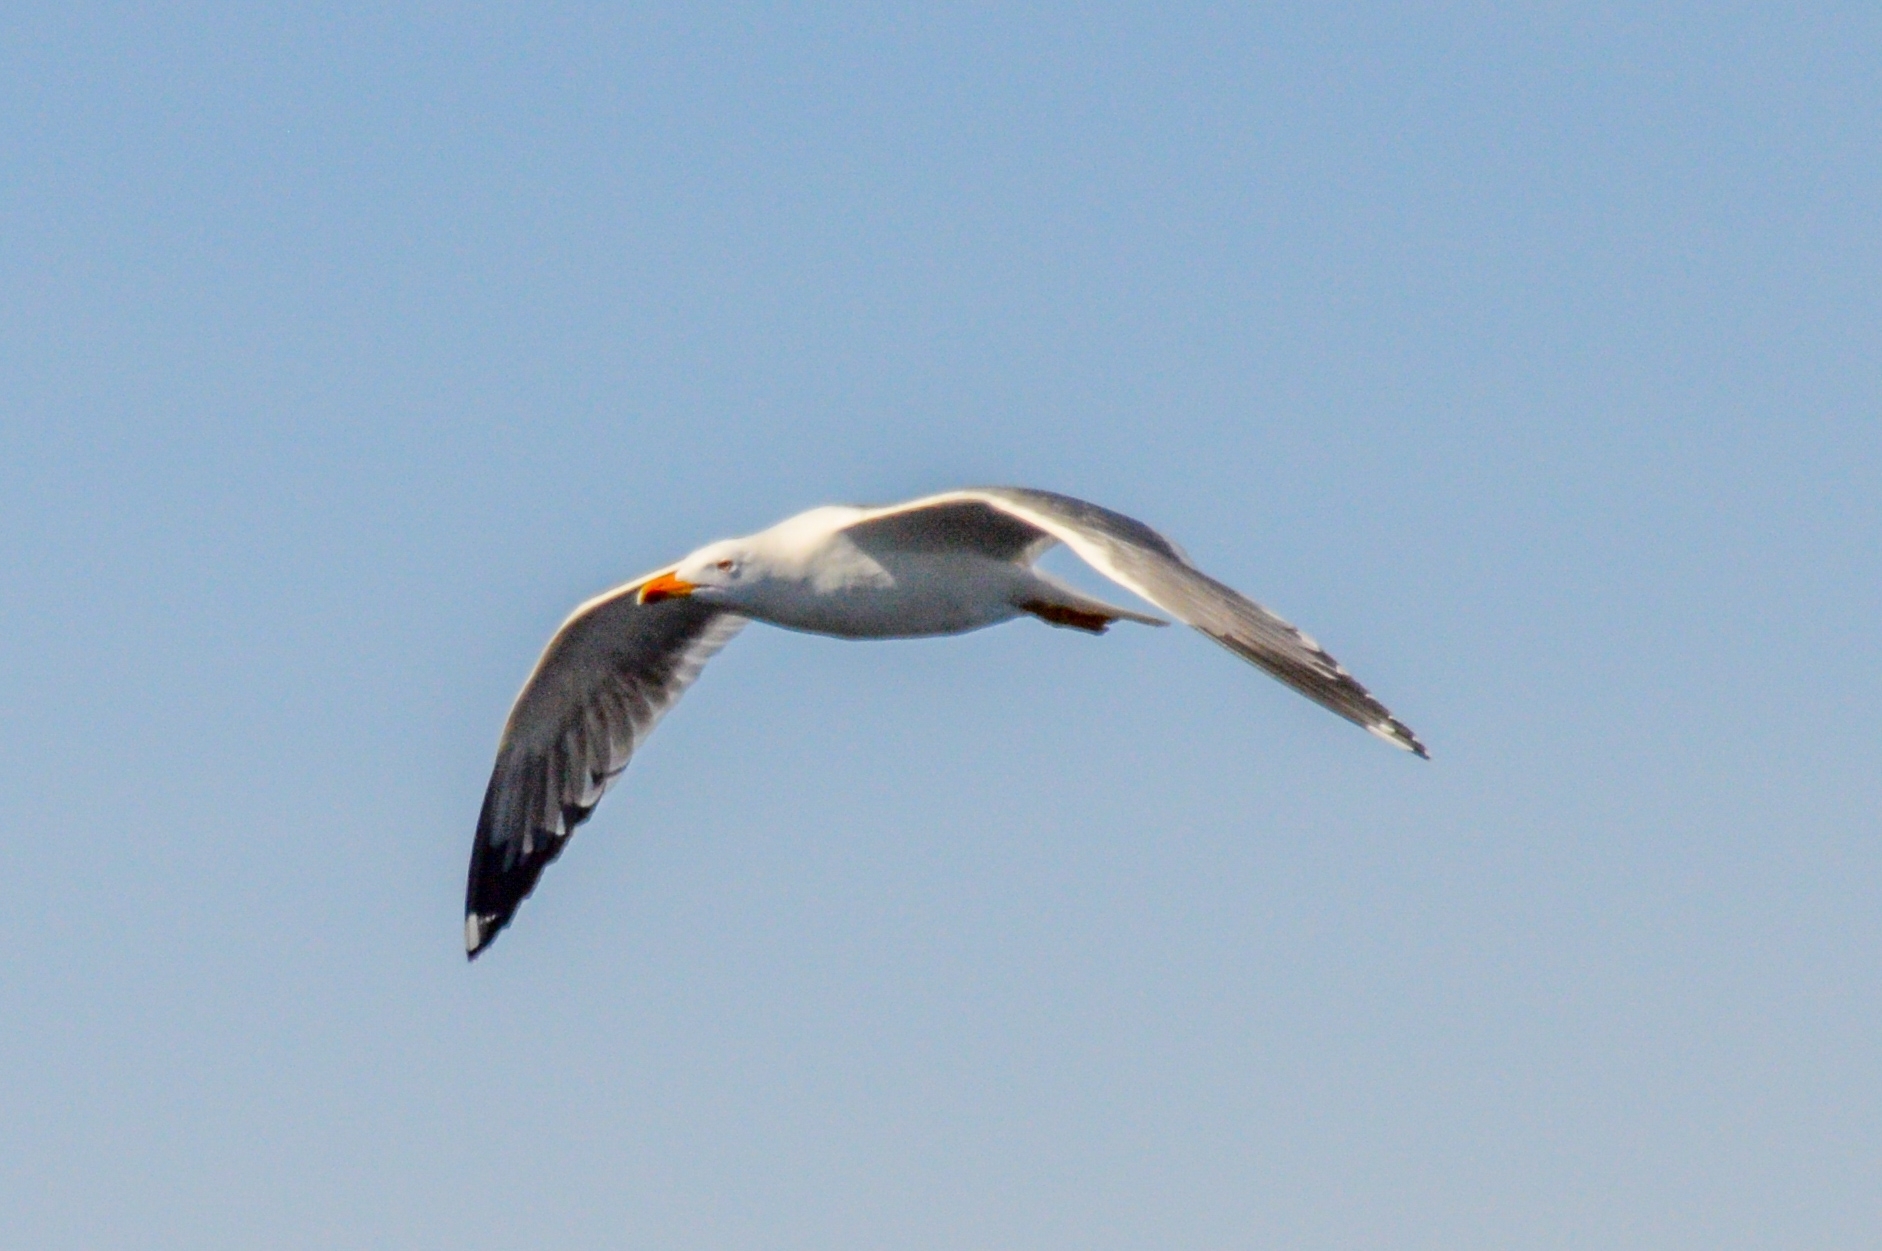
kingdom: Animalia
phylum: Chordata
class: Aves
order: Charadriiformes
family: Laridae
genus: Larus
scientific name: Larus fuscus
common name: Lesser black-backed gull
